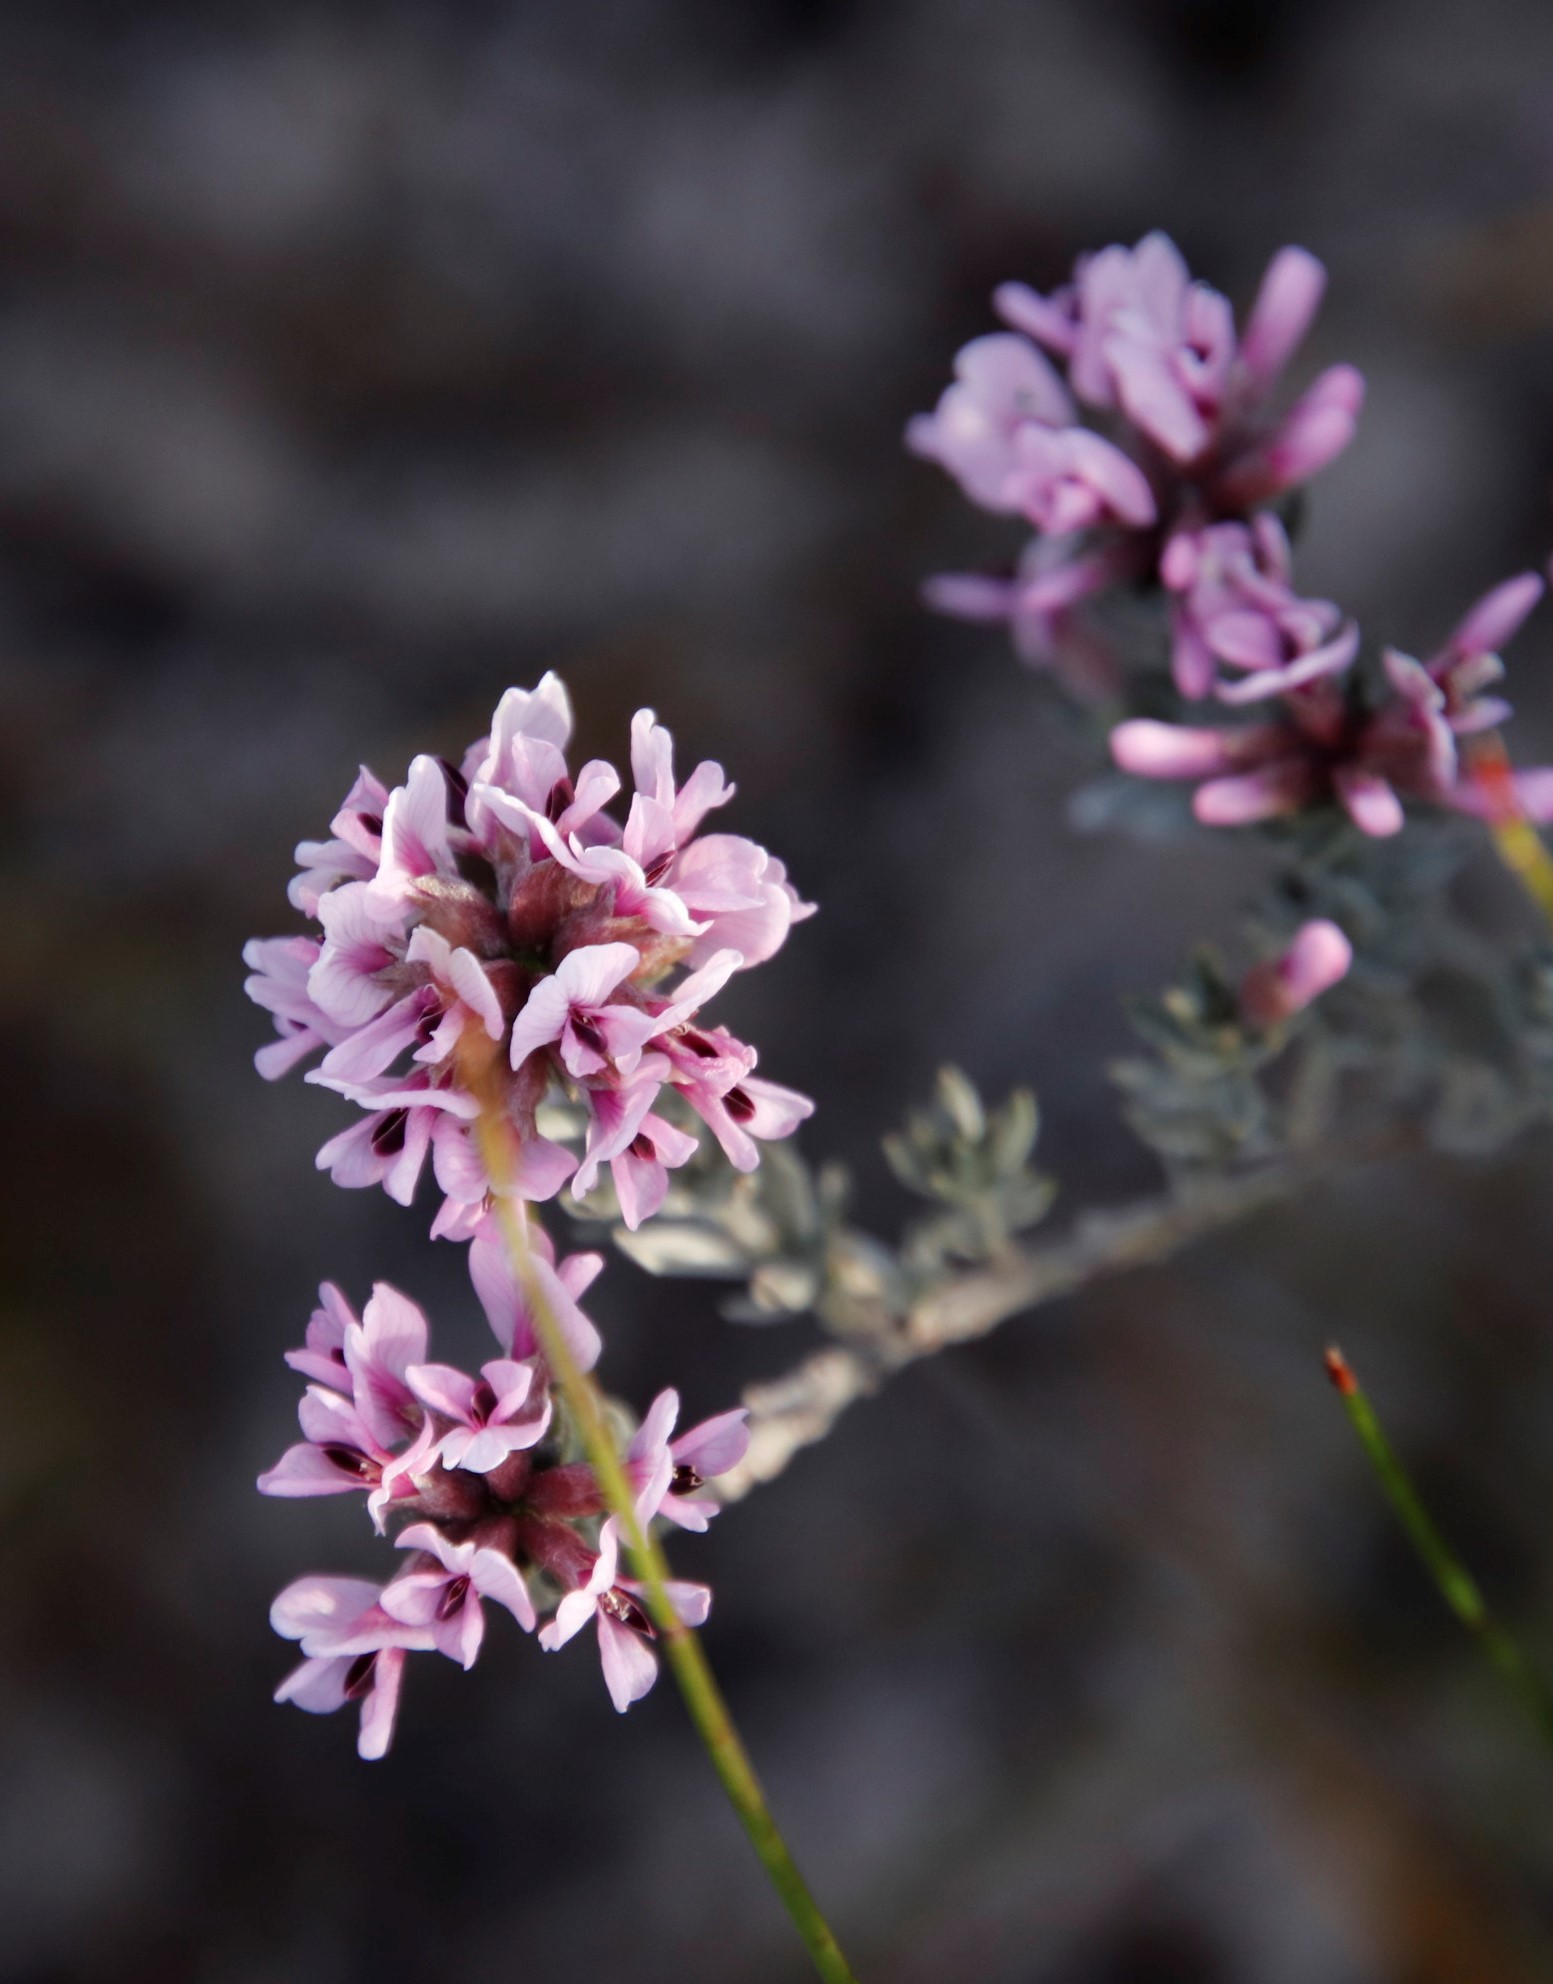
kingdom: Plantae
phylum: Tracheophyta
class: Magnoliopsida
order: Fabales
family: Fabaceae
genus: Amphithalea
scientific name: Amphithalea ericifolia
